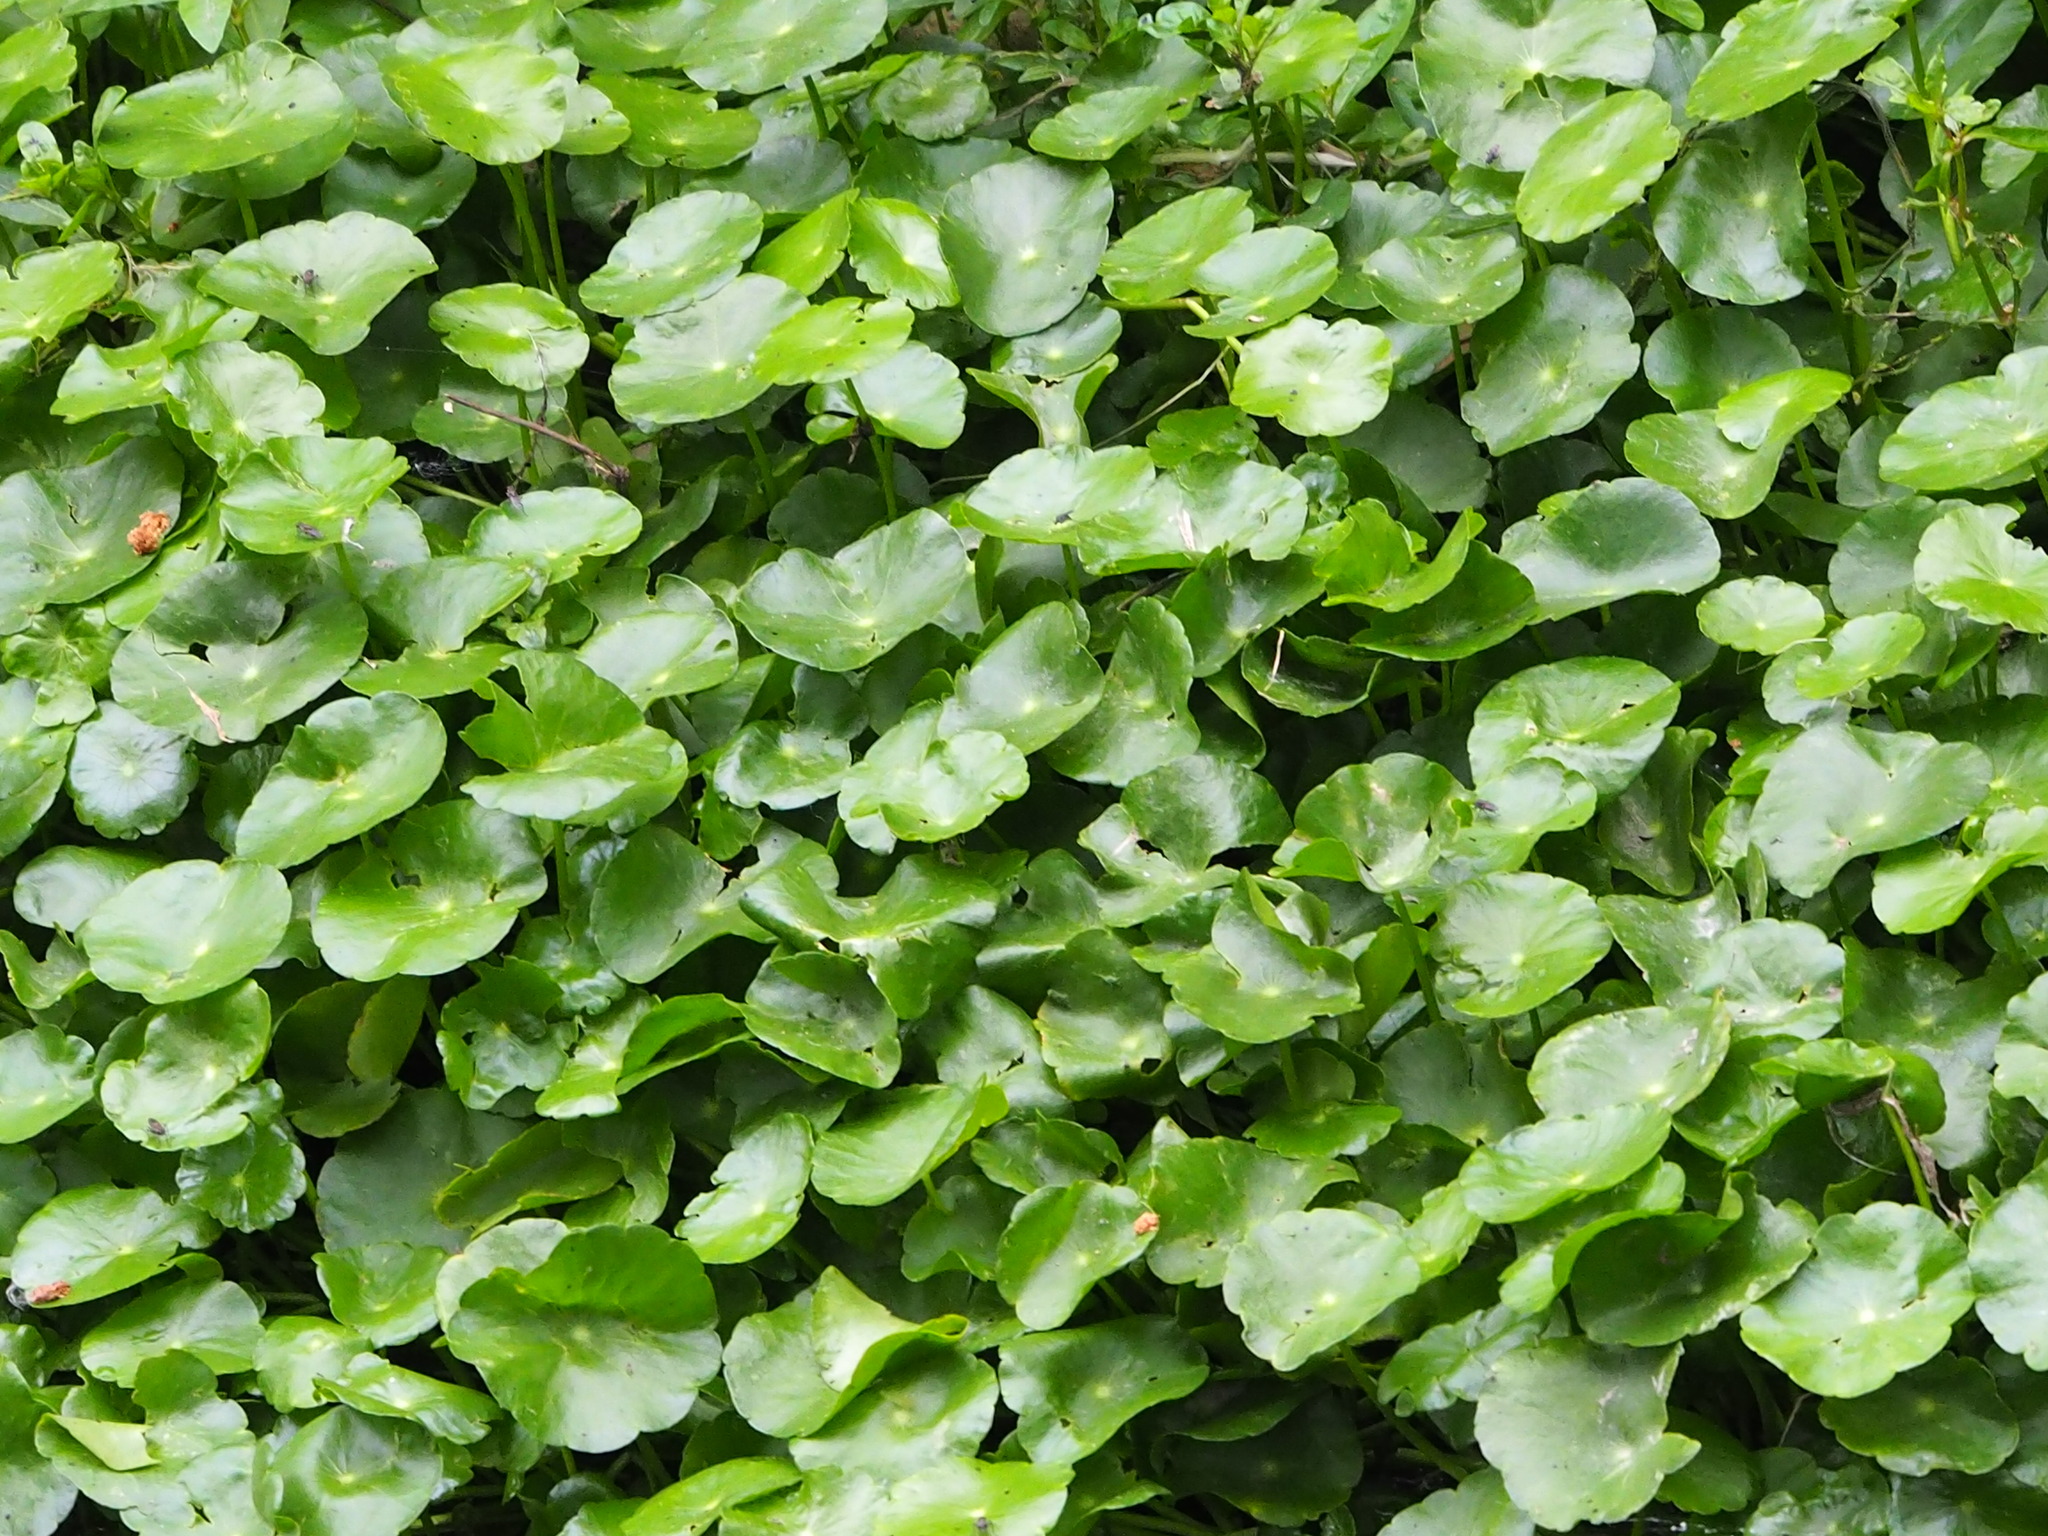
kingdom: Plantae
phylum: Tracheophyta
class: Magnoliopsida
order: Apiales
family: Araliaceae
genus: Hydrocotyle
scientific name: Hydrocotyle verticillata
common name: Whorled marshpennywort
